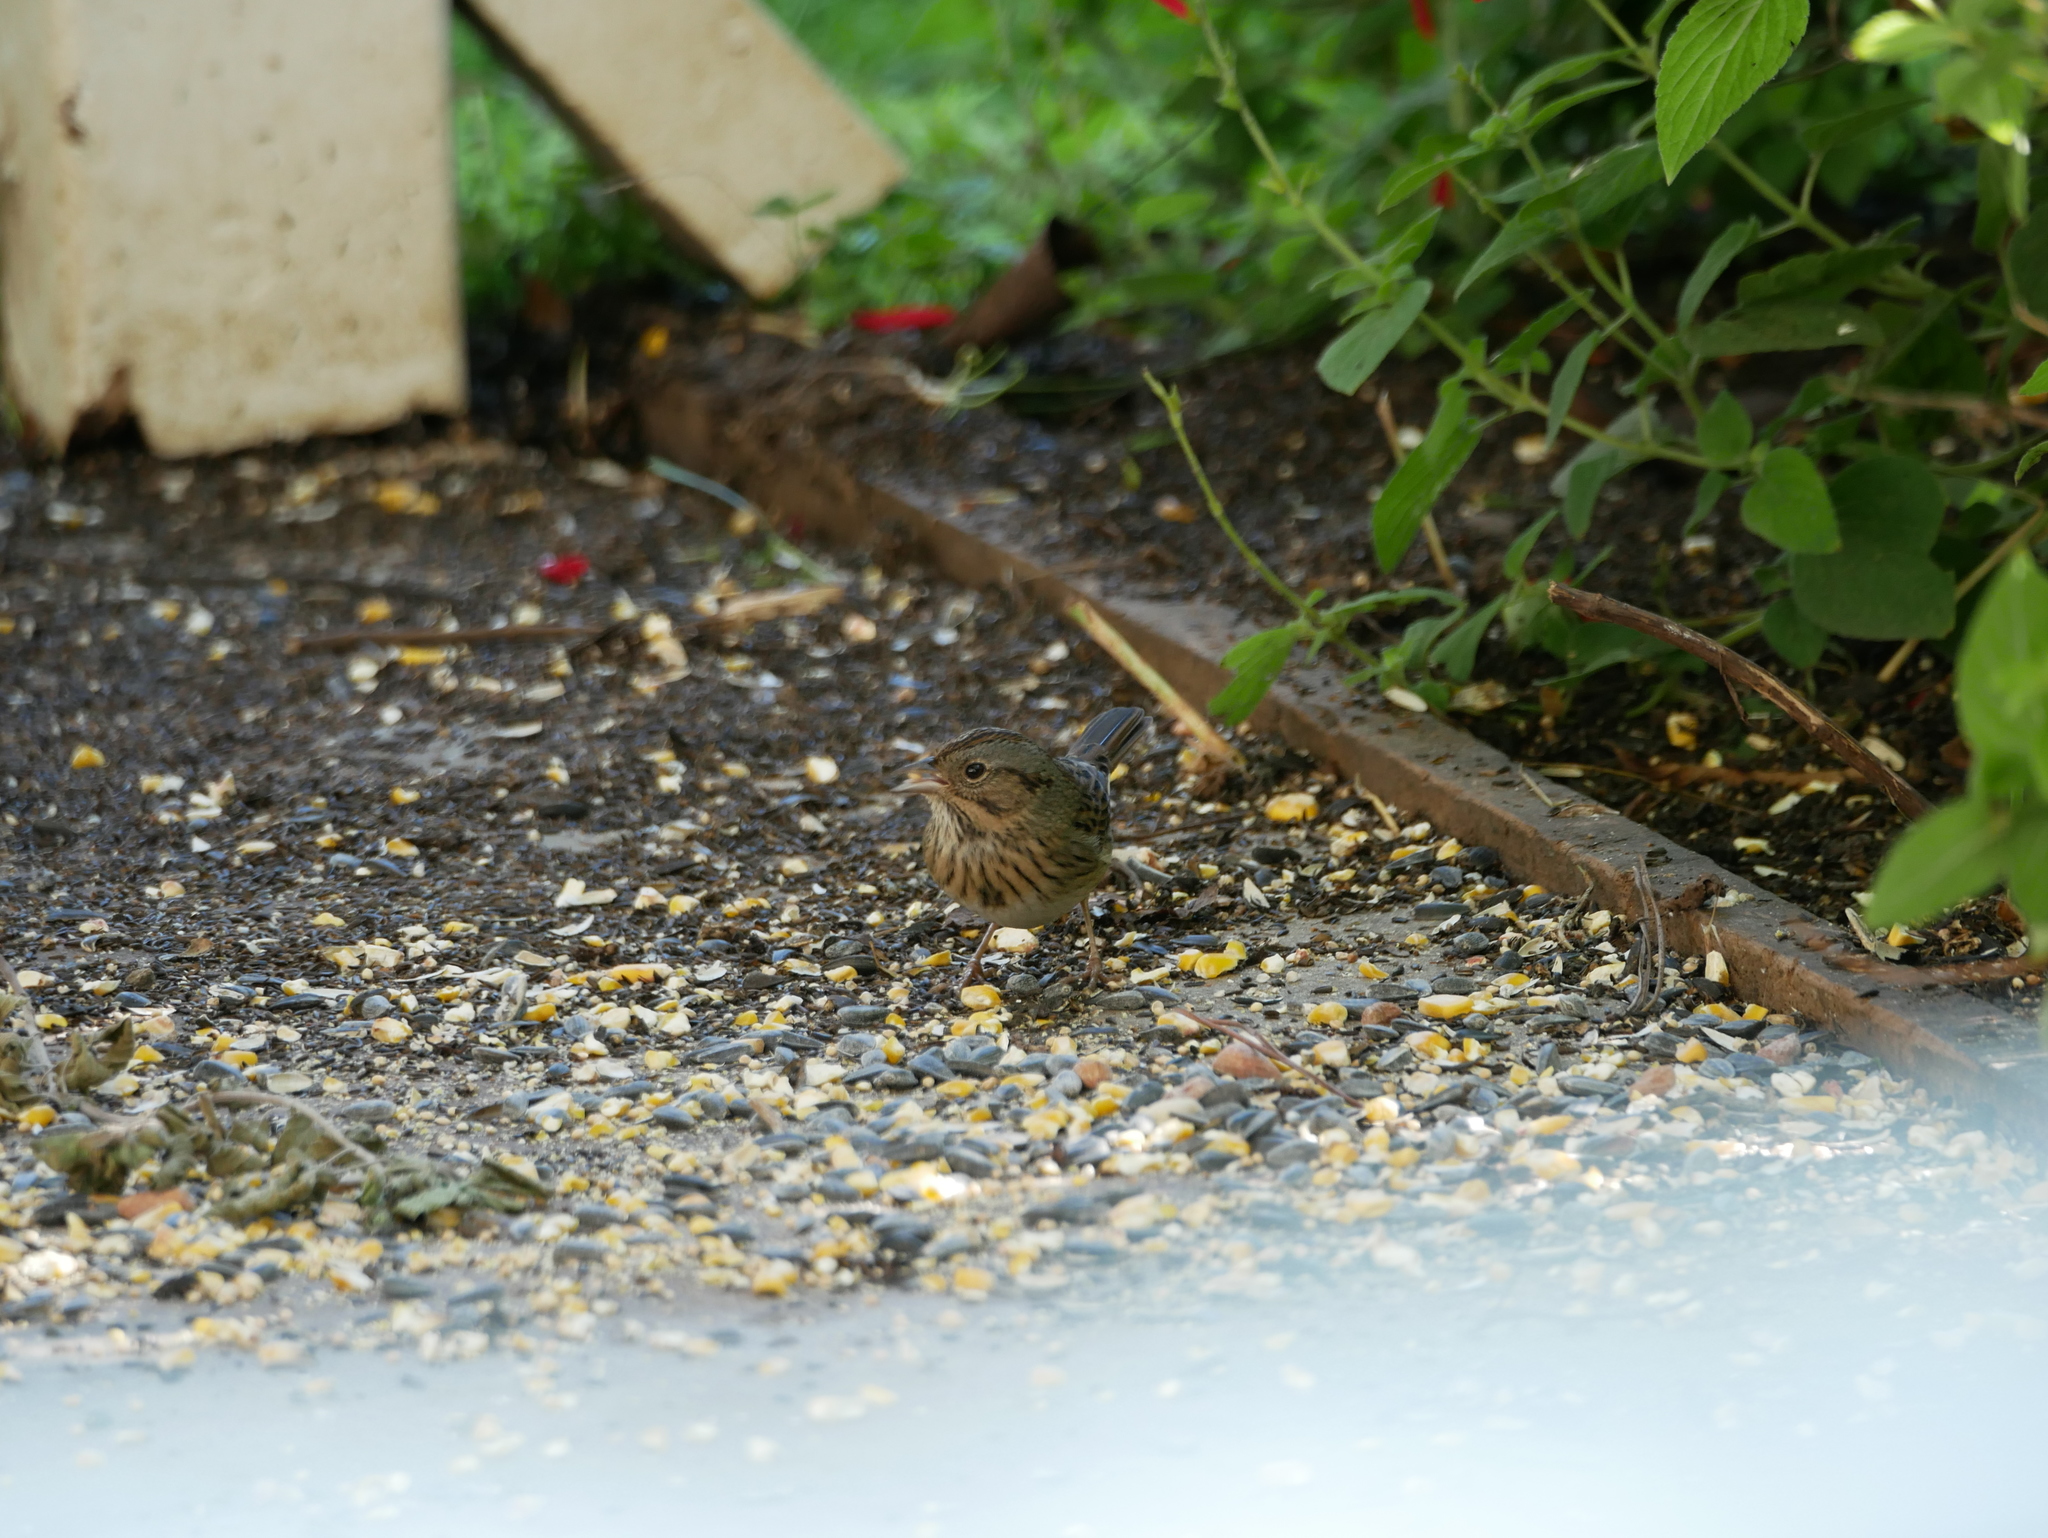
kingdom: Animalia
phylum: Chordata
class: Aves
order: Passeriformes
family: Passerellidae
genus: Melospiza
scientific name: Melospiza lincolnii
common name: Lincoln's sparrow
